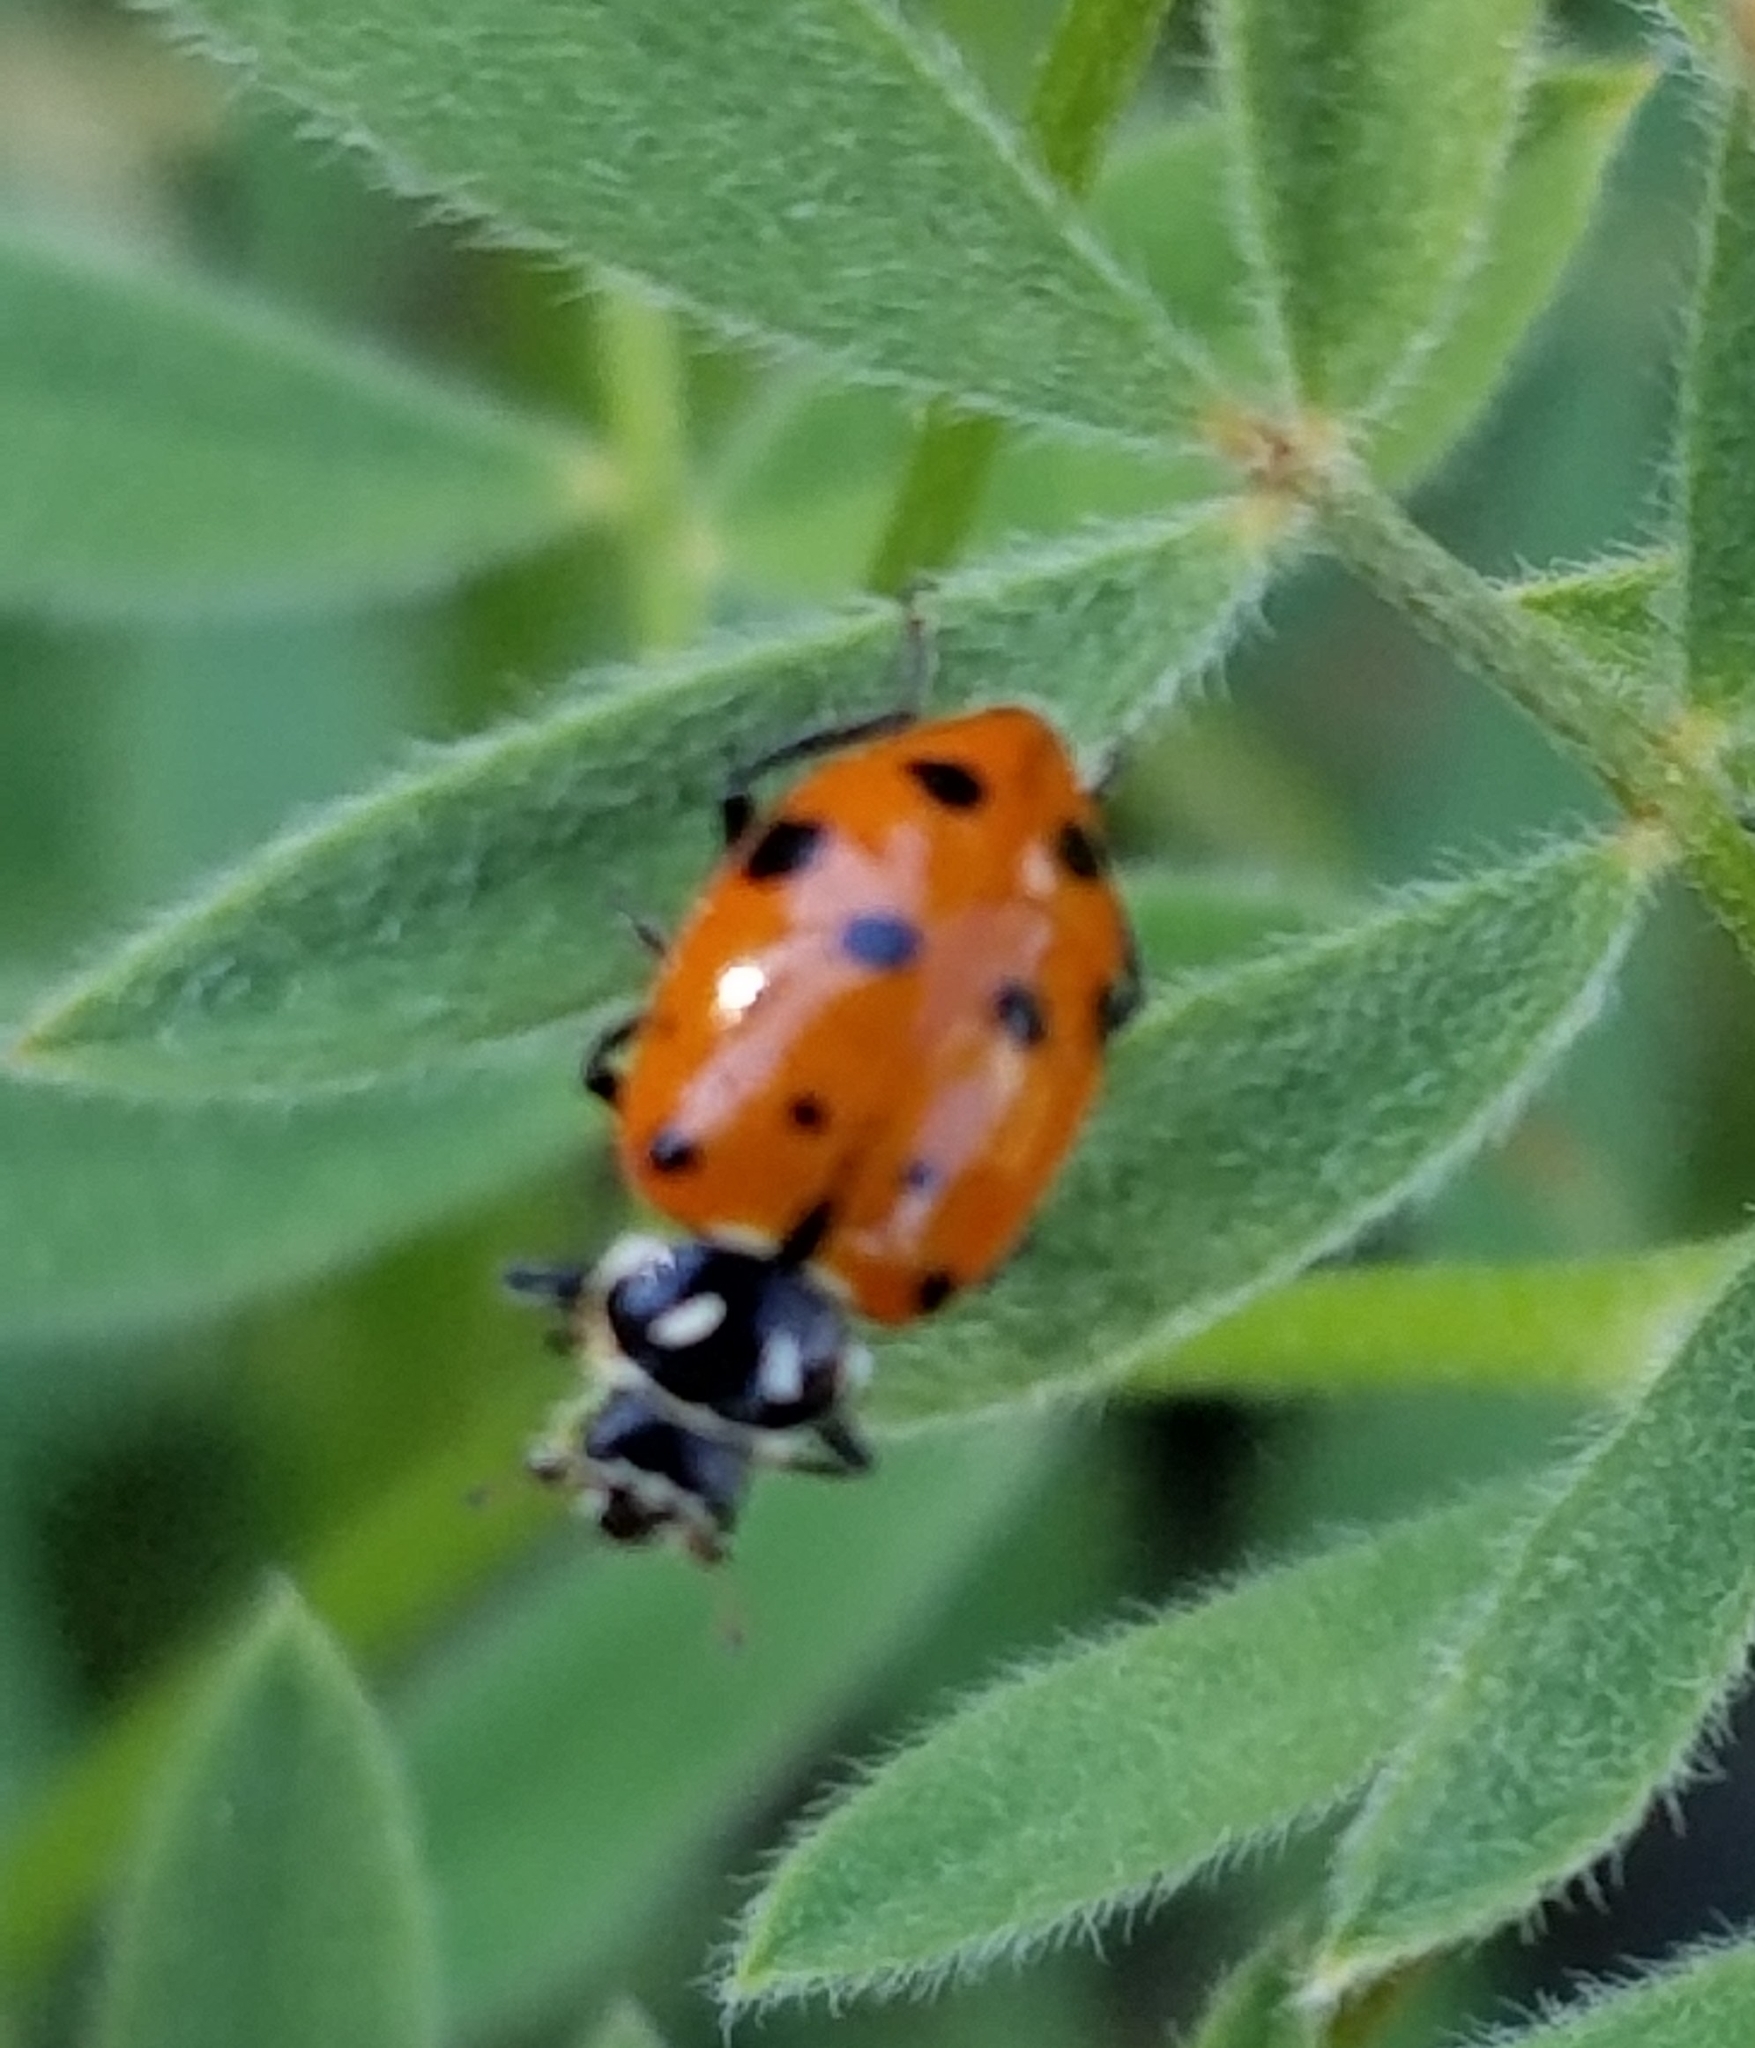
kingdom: Animalia
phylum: Arthropoda
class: Insecta
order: Coleoptera
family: Coccinellidae
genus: Hippodamia
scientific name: Hippodamia convergens
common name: Convergent lady beetle
